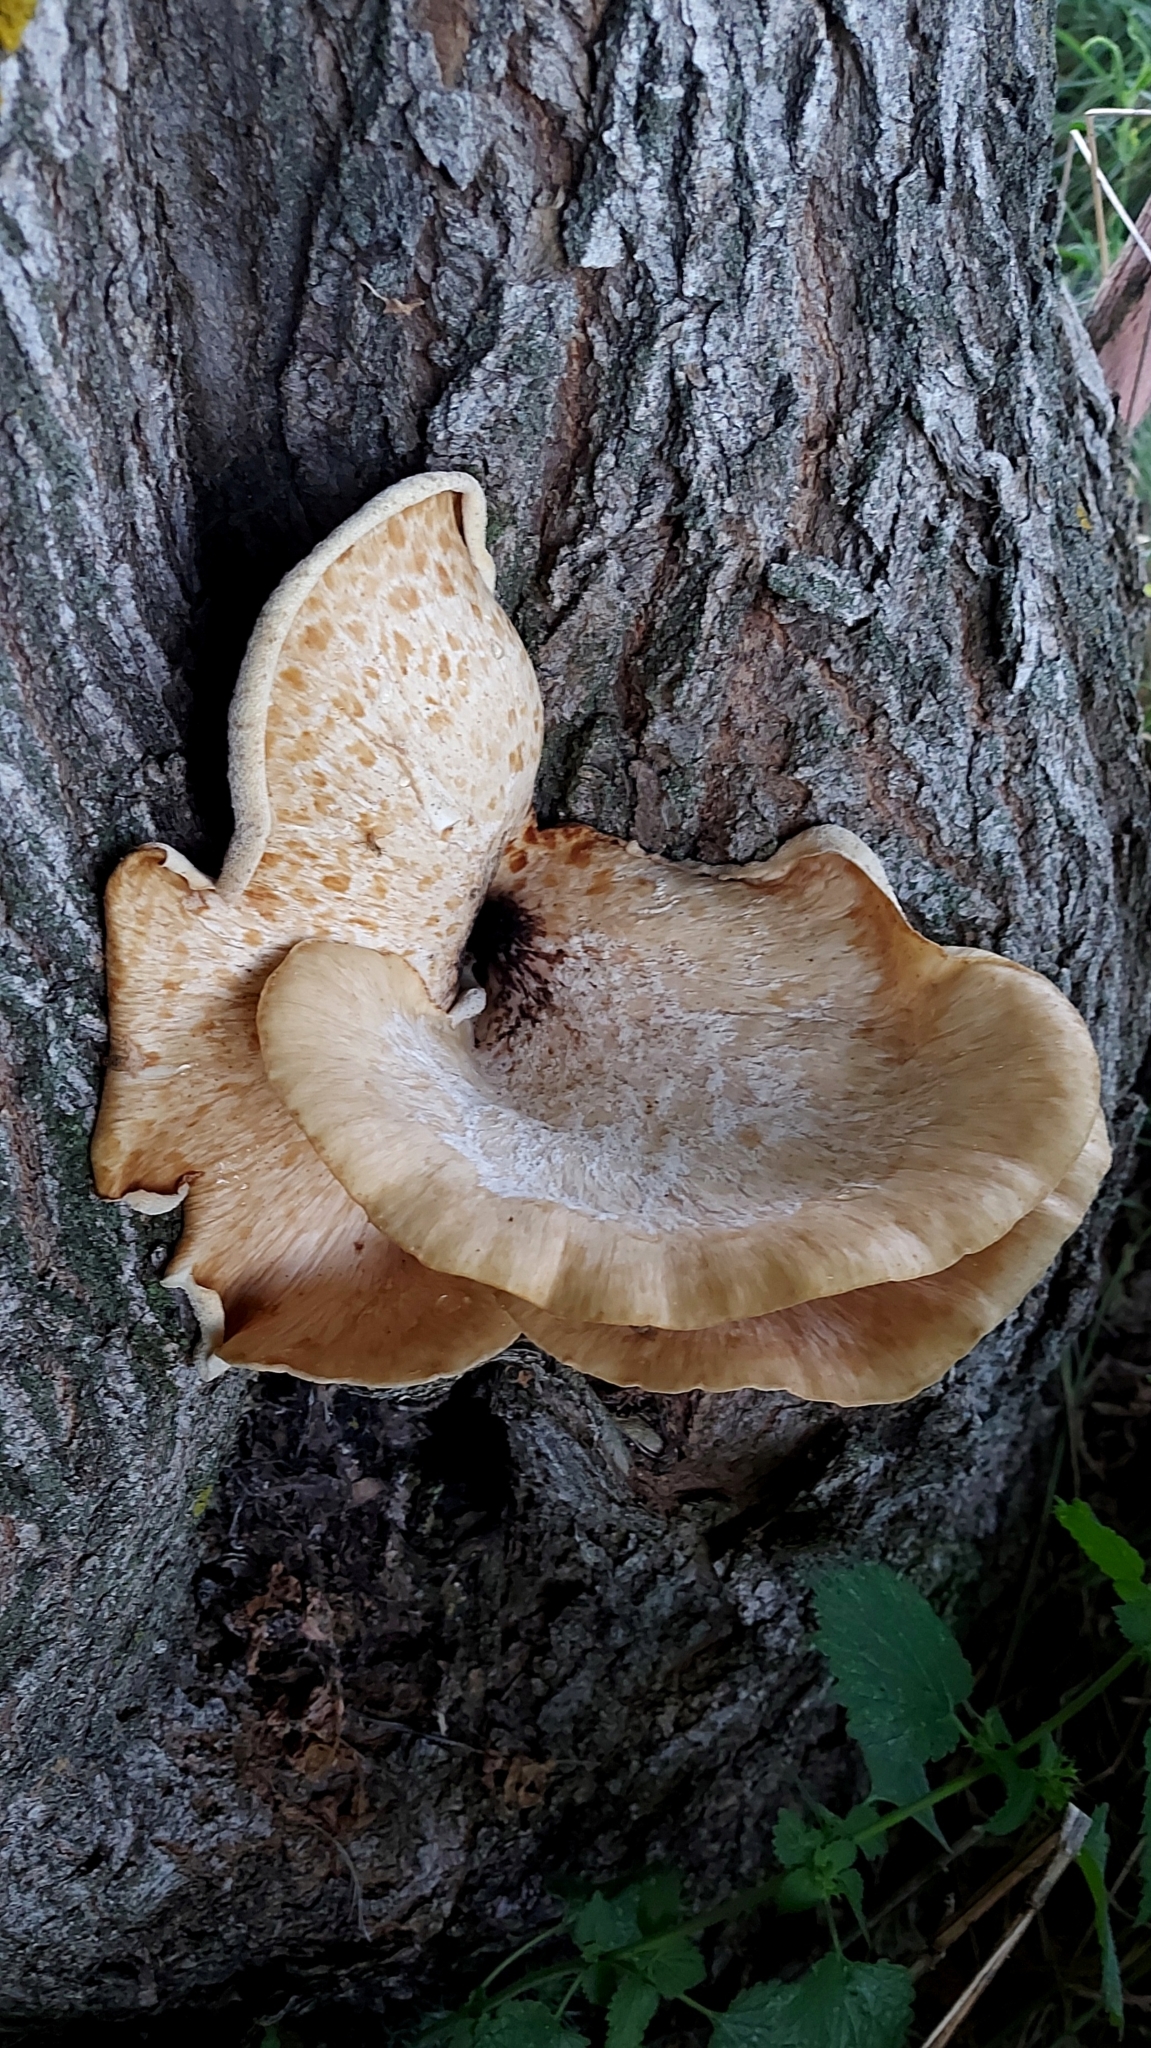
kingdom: Fungi
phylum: Basidiomycota
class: Agaricomycetes
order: Polyporales
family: Polyporaceae
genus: Cerioporus
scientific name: Cerioporus squamosus
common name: Dryad's saddle
